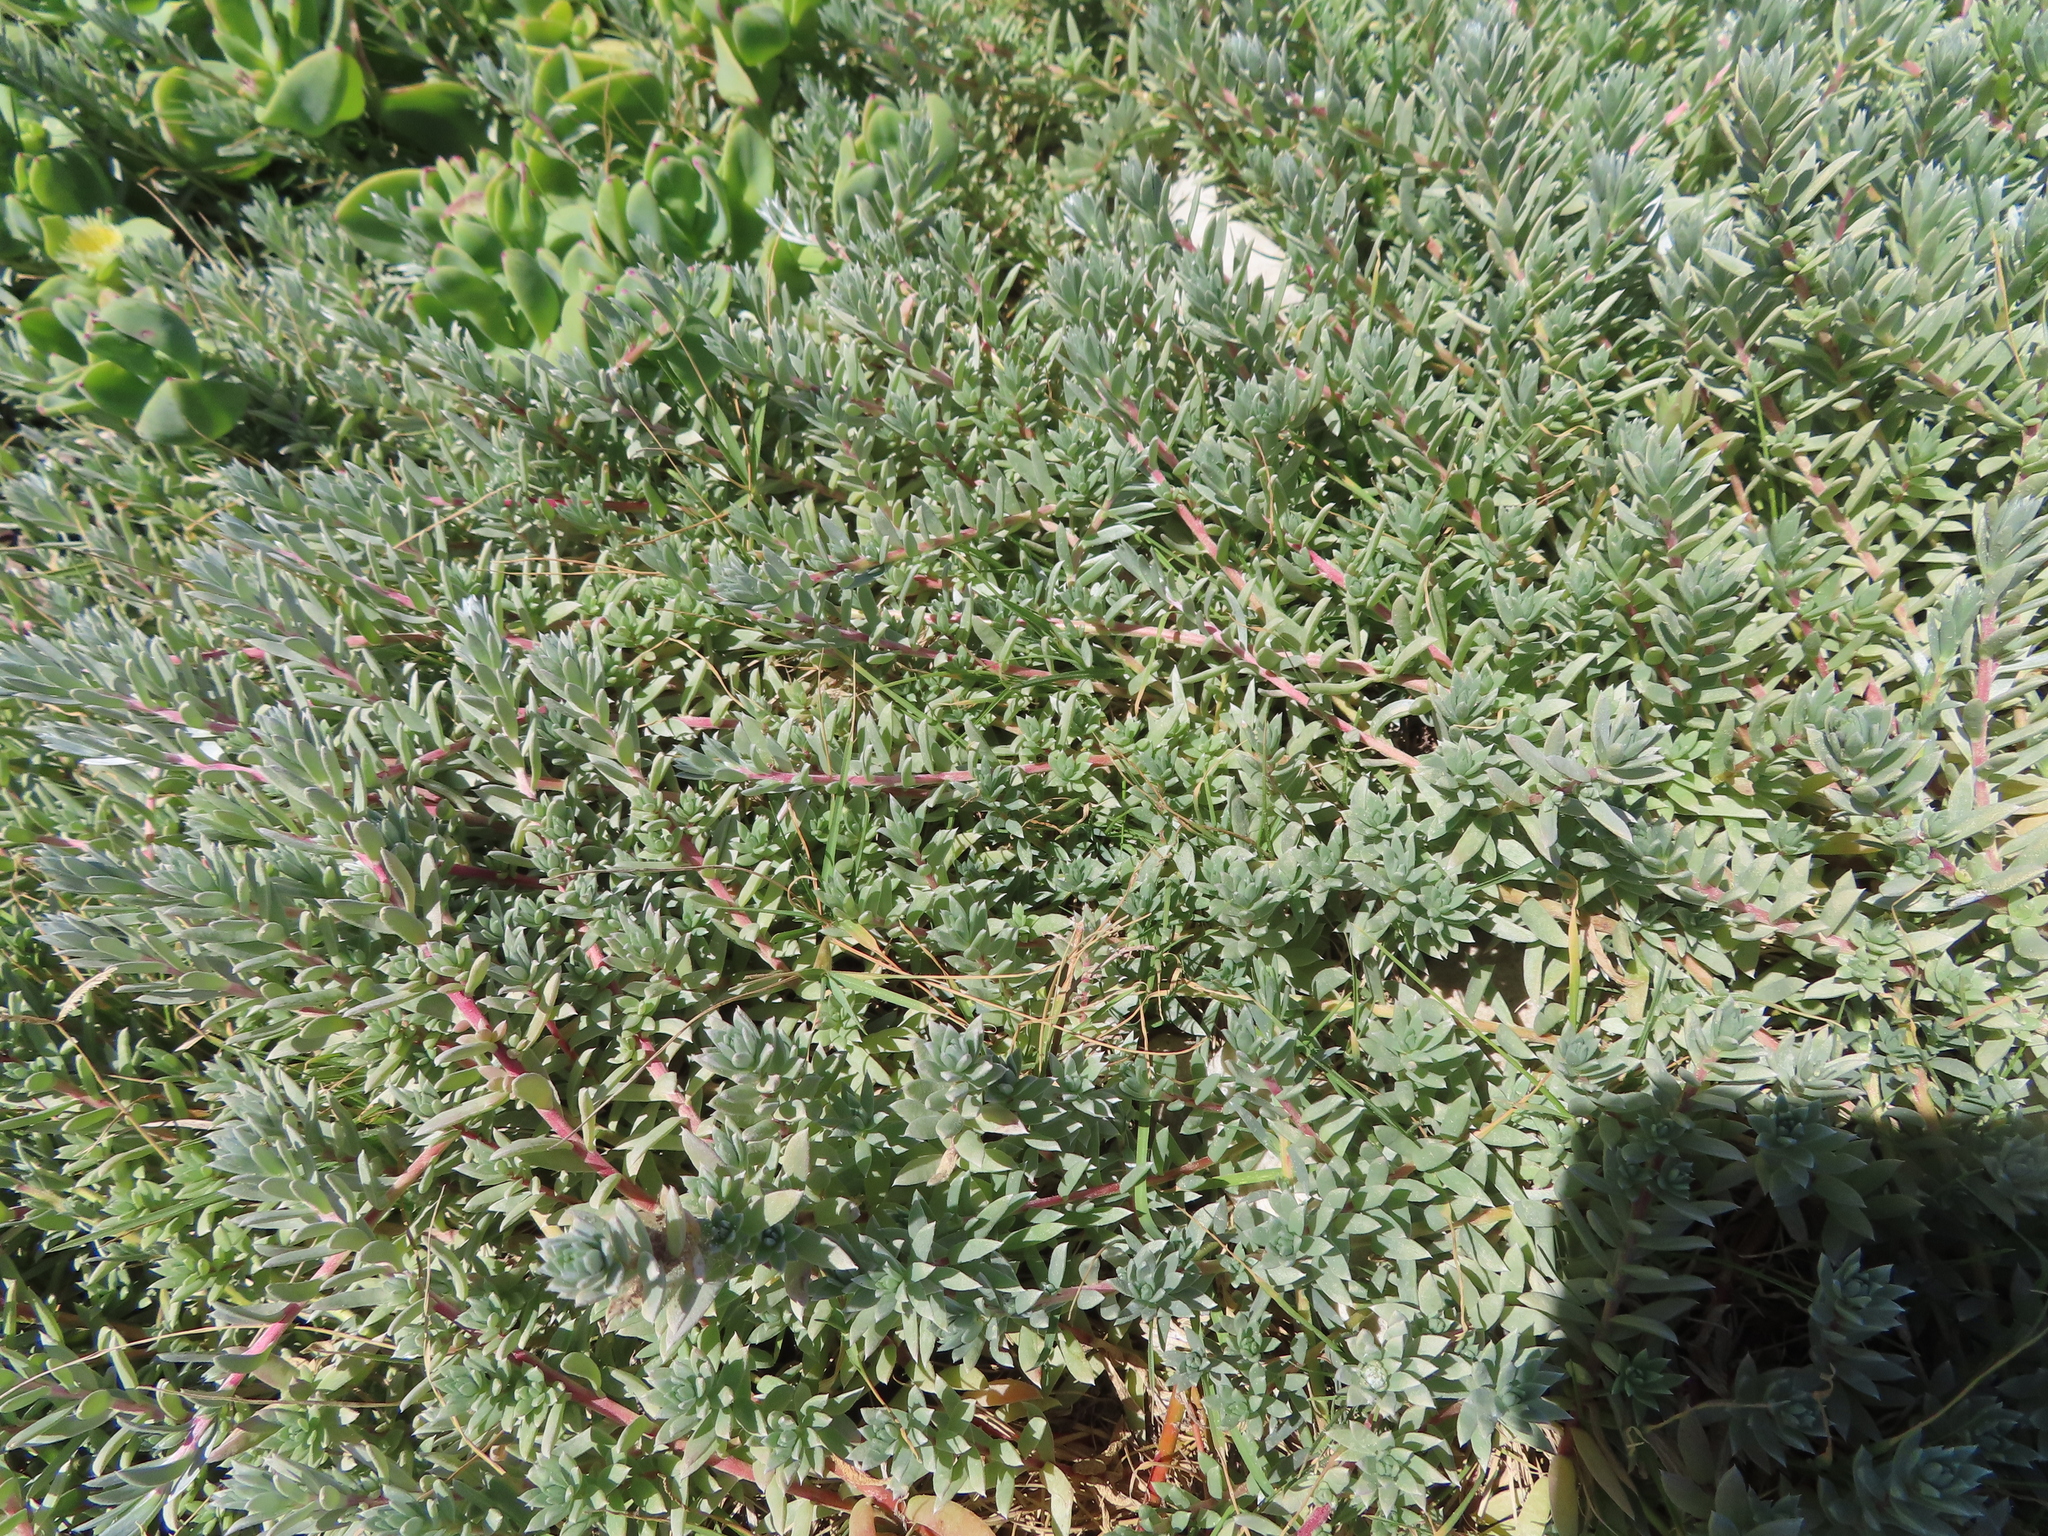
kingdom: Plantae
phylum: Tracheophyta
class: Magnoliopsida
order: Caryophyllales
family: Amaranthaceae
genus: Chenolea
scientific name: Chenolea diffusa
